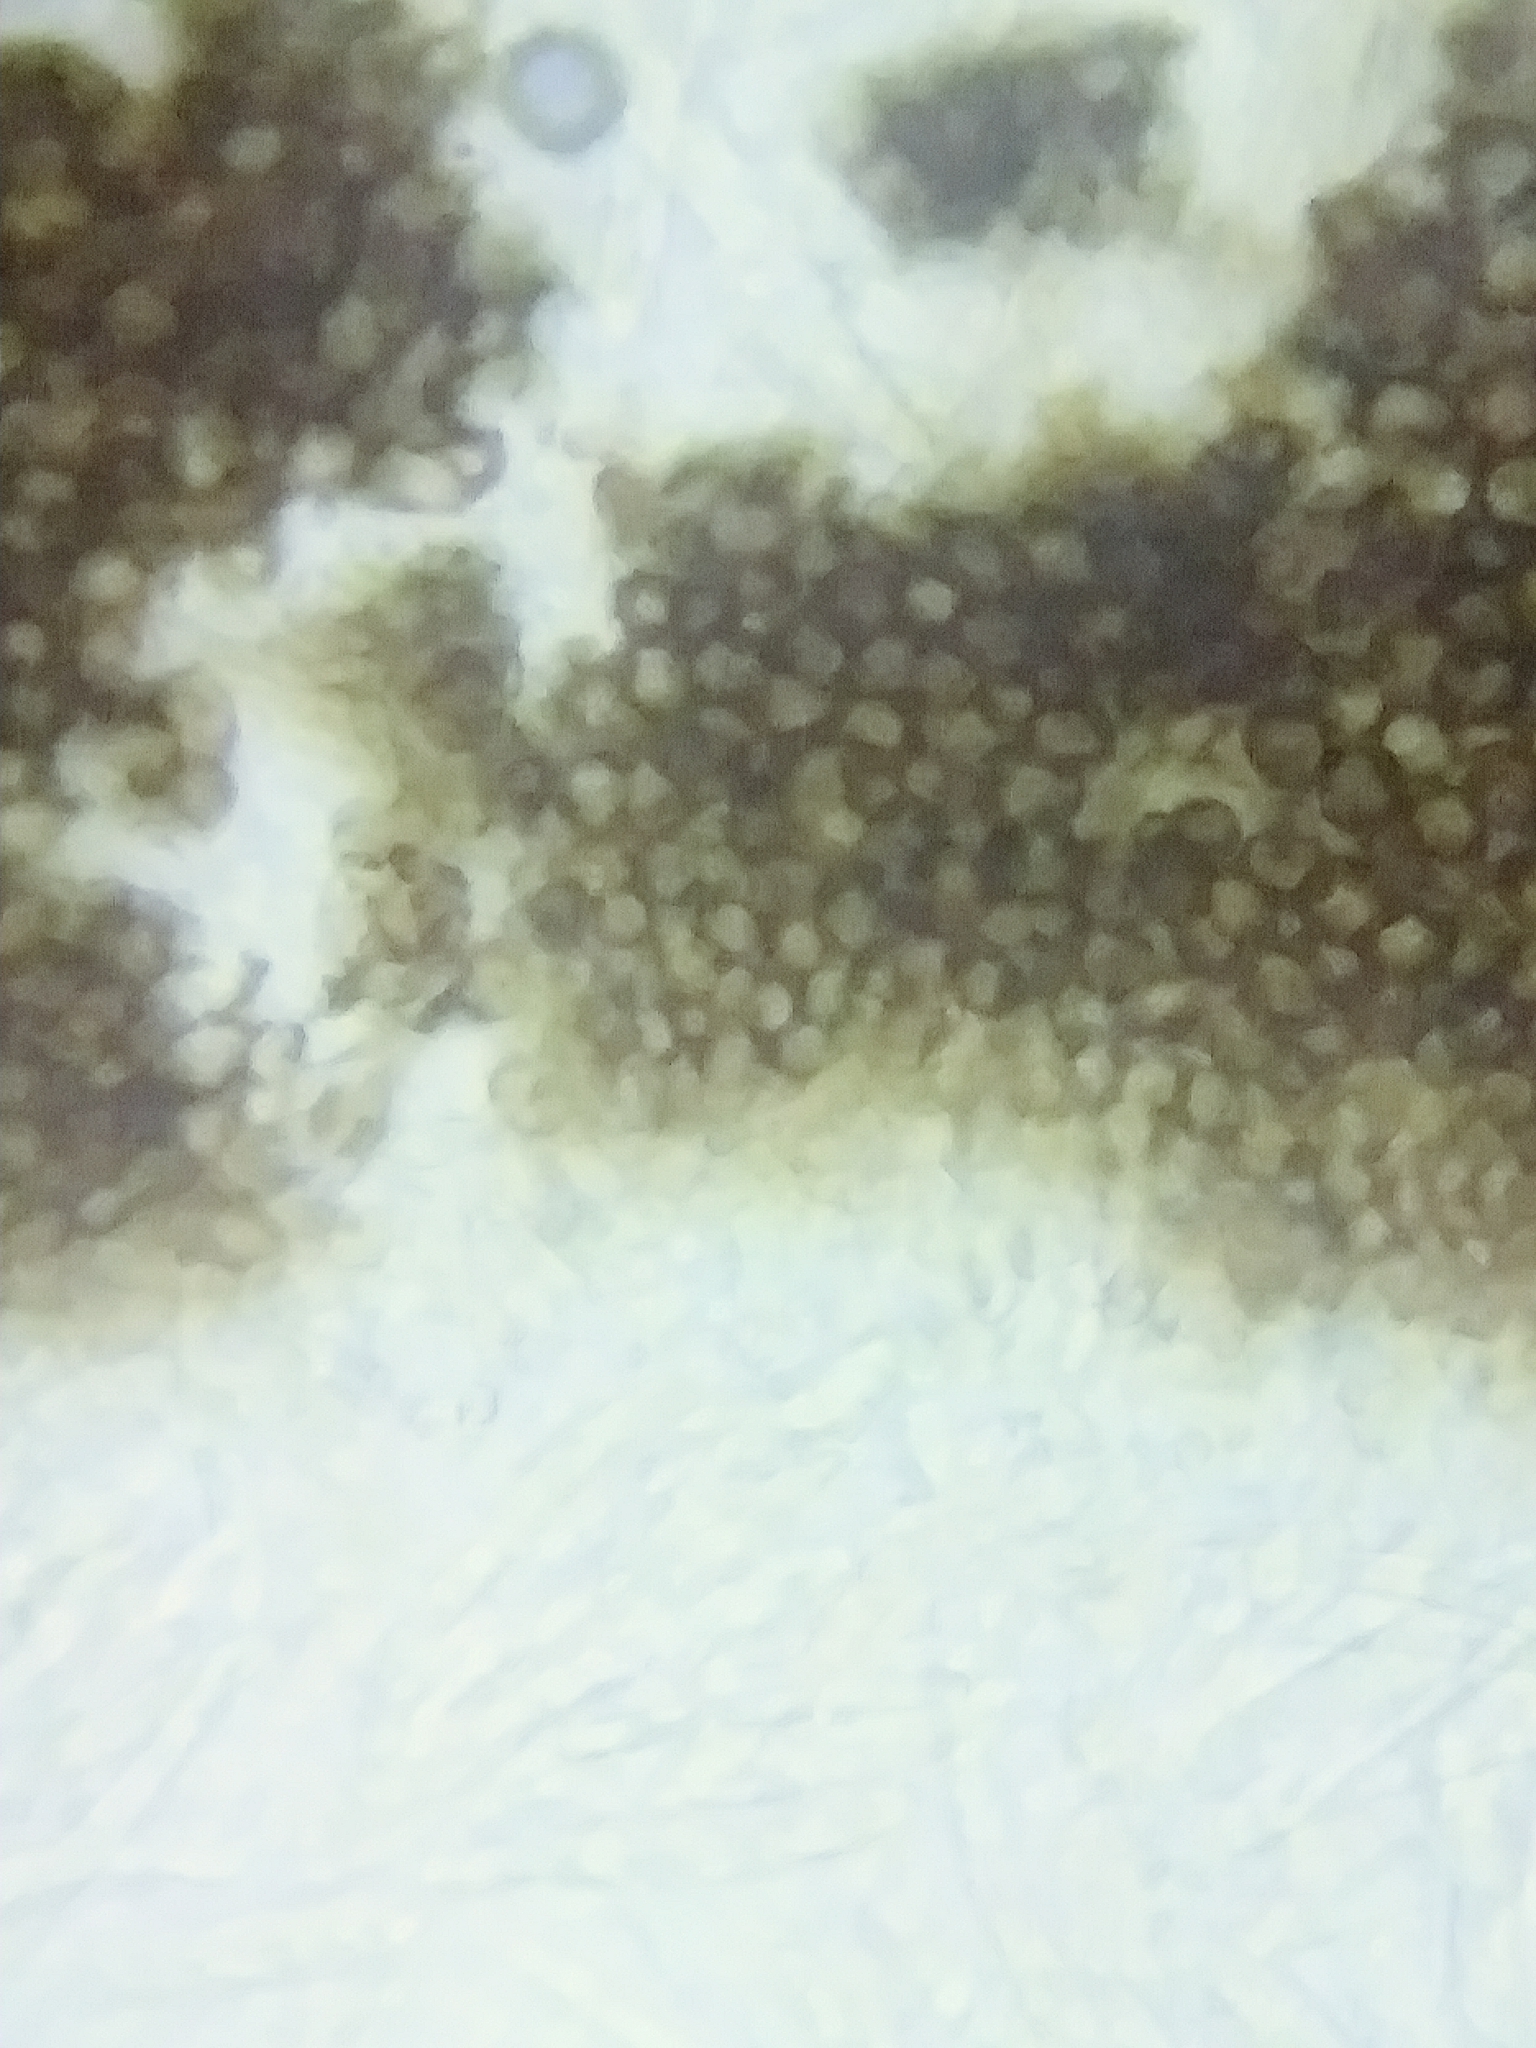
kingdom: Fungi
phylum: Ascomycota
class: Leotiomycetes
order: Helotiales
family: Mollisiaceae
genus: Mollisia
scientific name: Mollisia melaleuca
